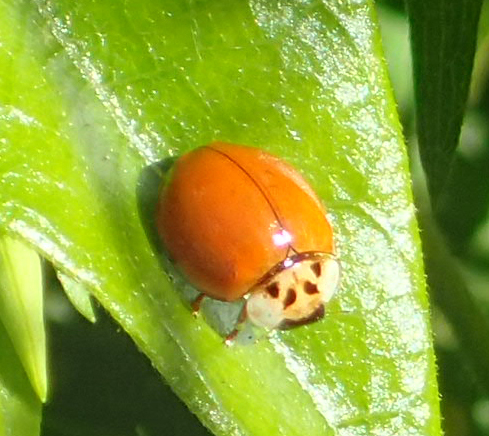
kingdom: Animalia
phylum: Arthropoda
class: Insecta
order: Coleoptera
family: Coccinellidae
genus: Harmonia
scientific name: Harmonia axyridis
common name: Harlequin ladybird
